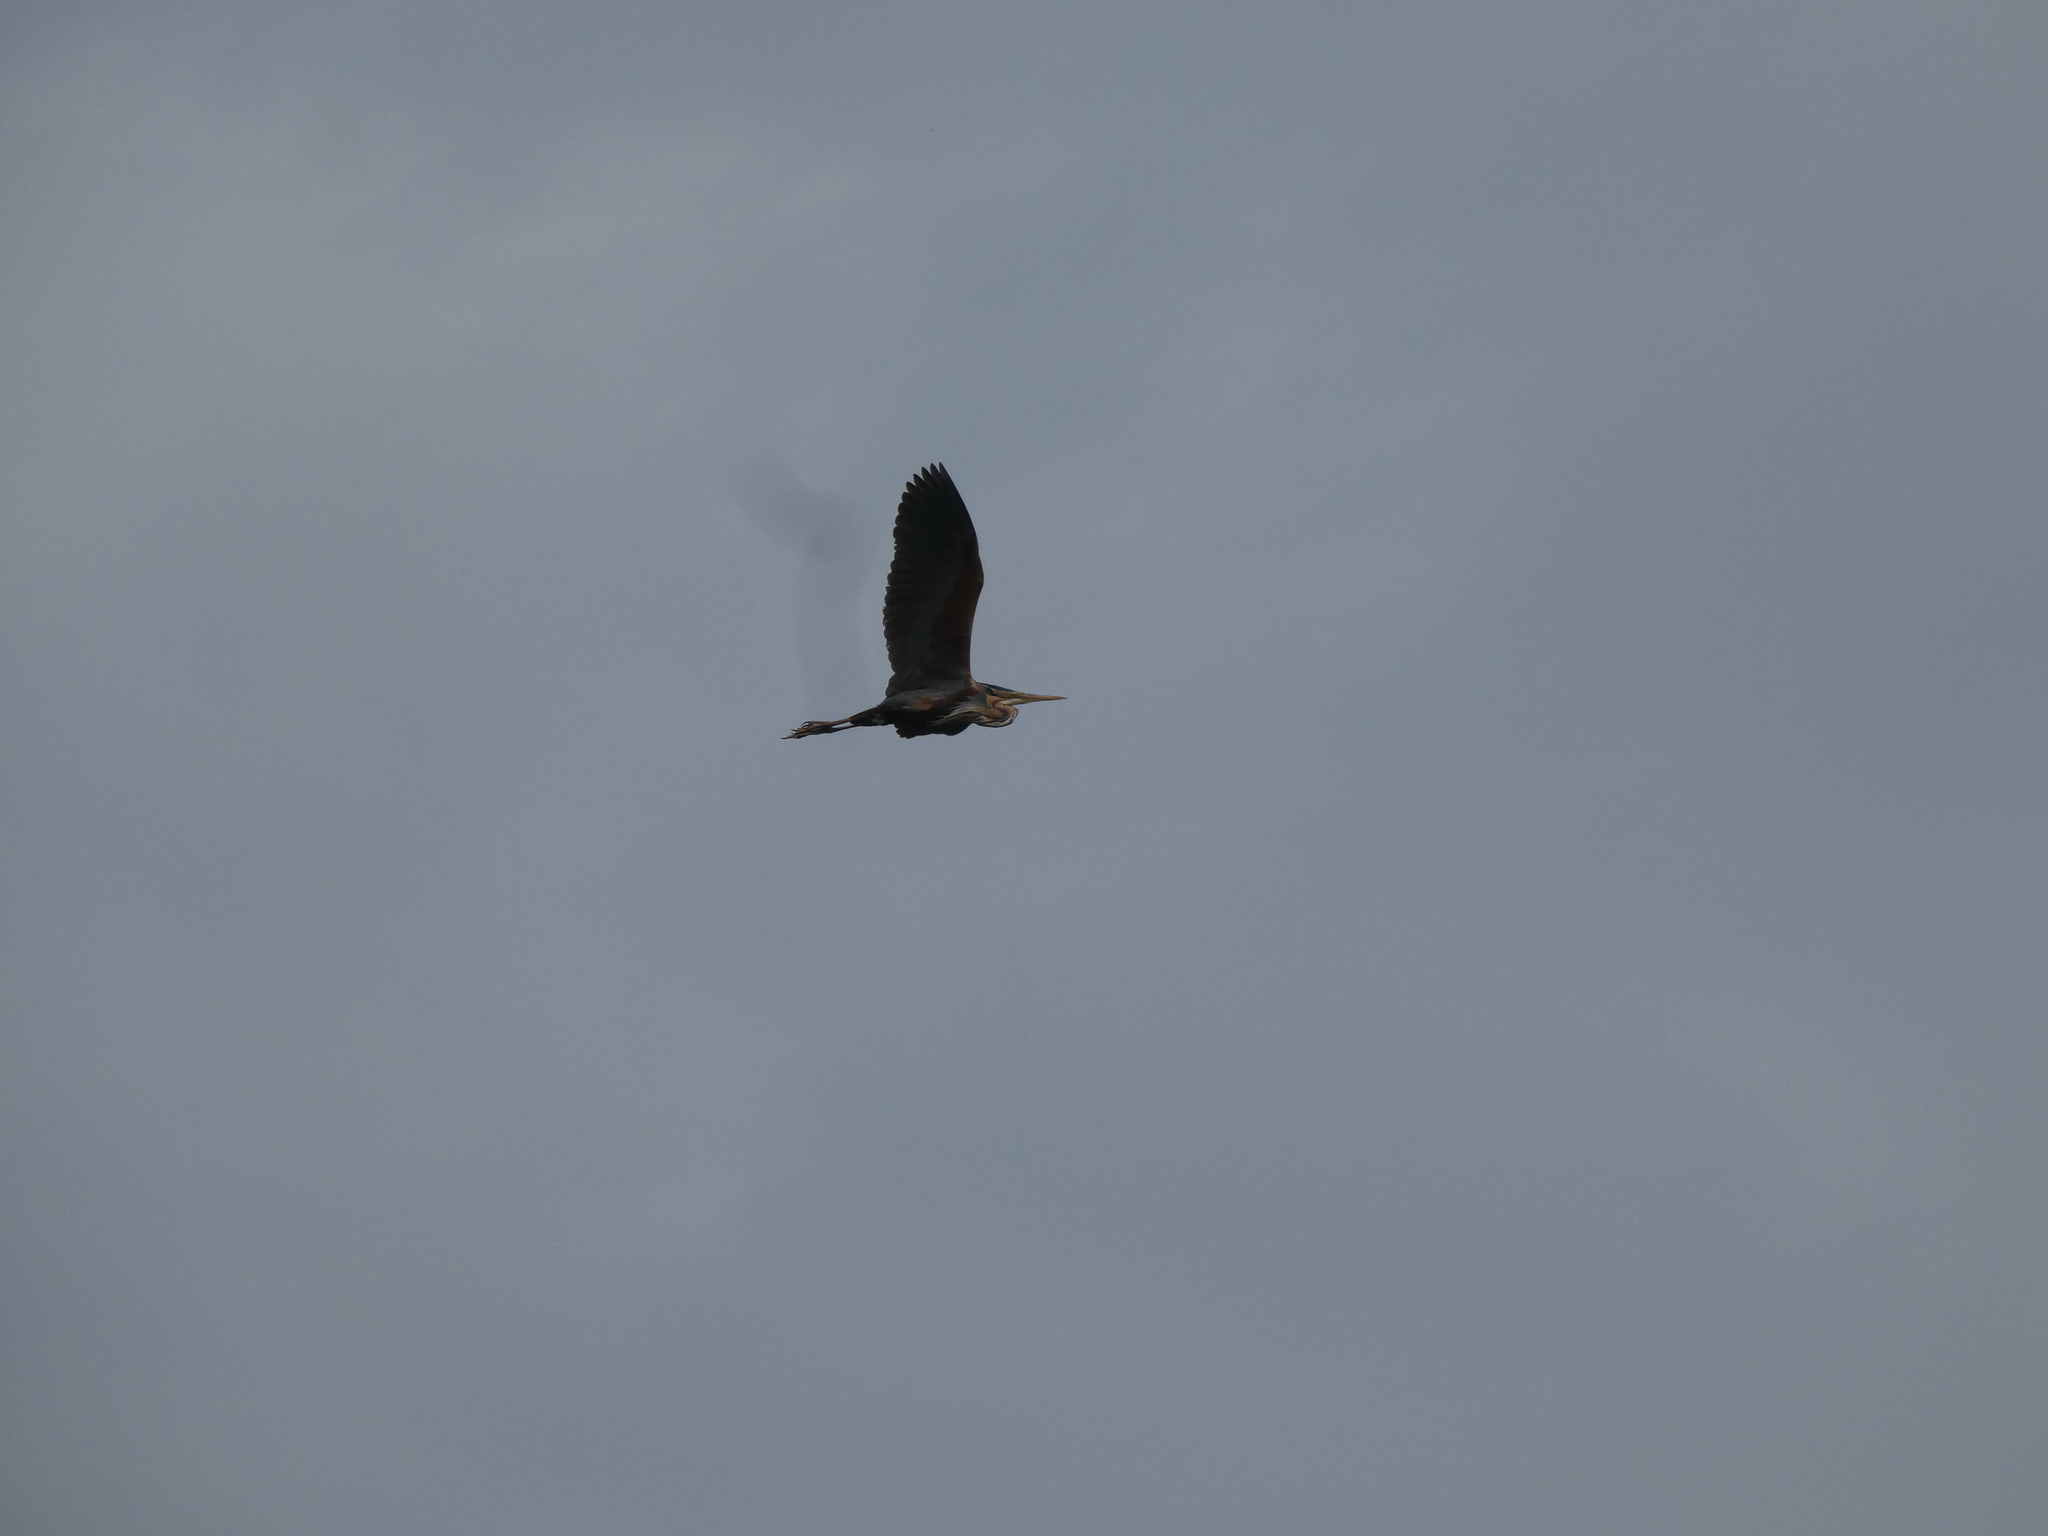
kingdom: Animalia
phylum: Chordata
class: Aves
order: Pelecaniformes
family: Ardeidae
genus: Ardea
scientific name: Ardea purpurea
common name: Purple heron
